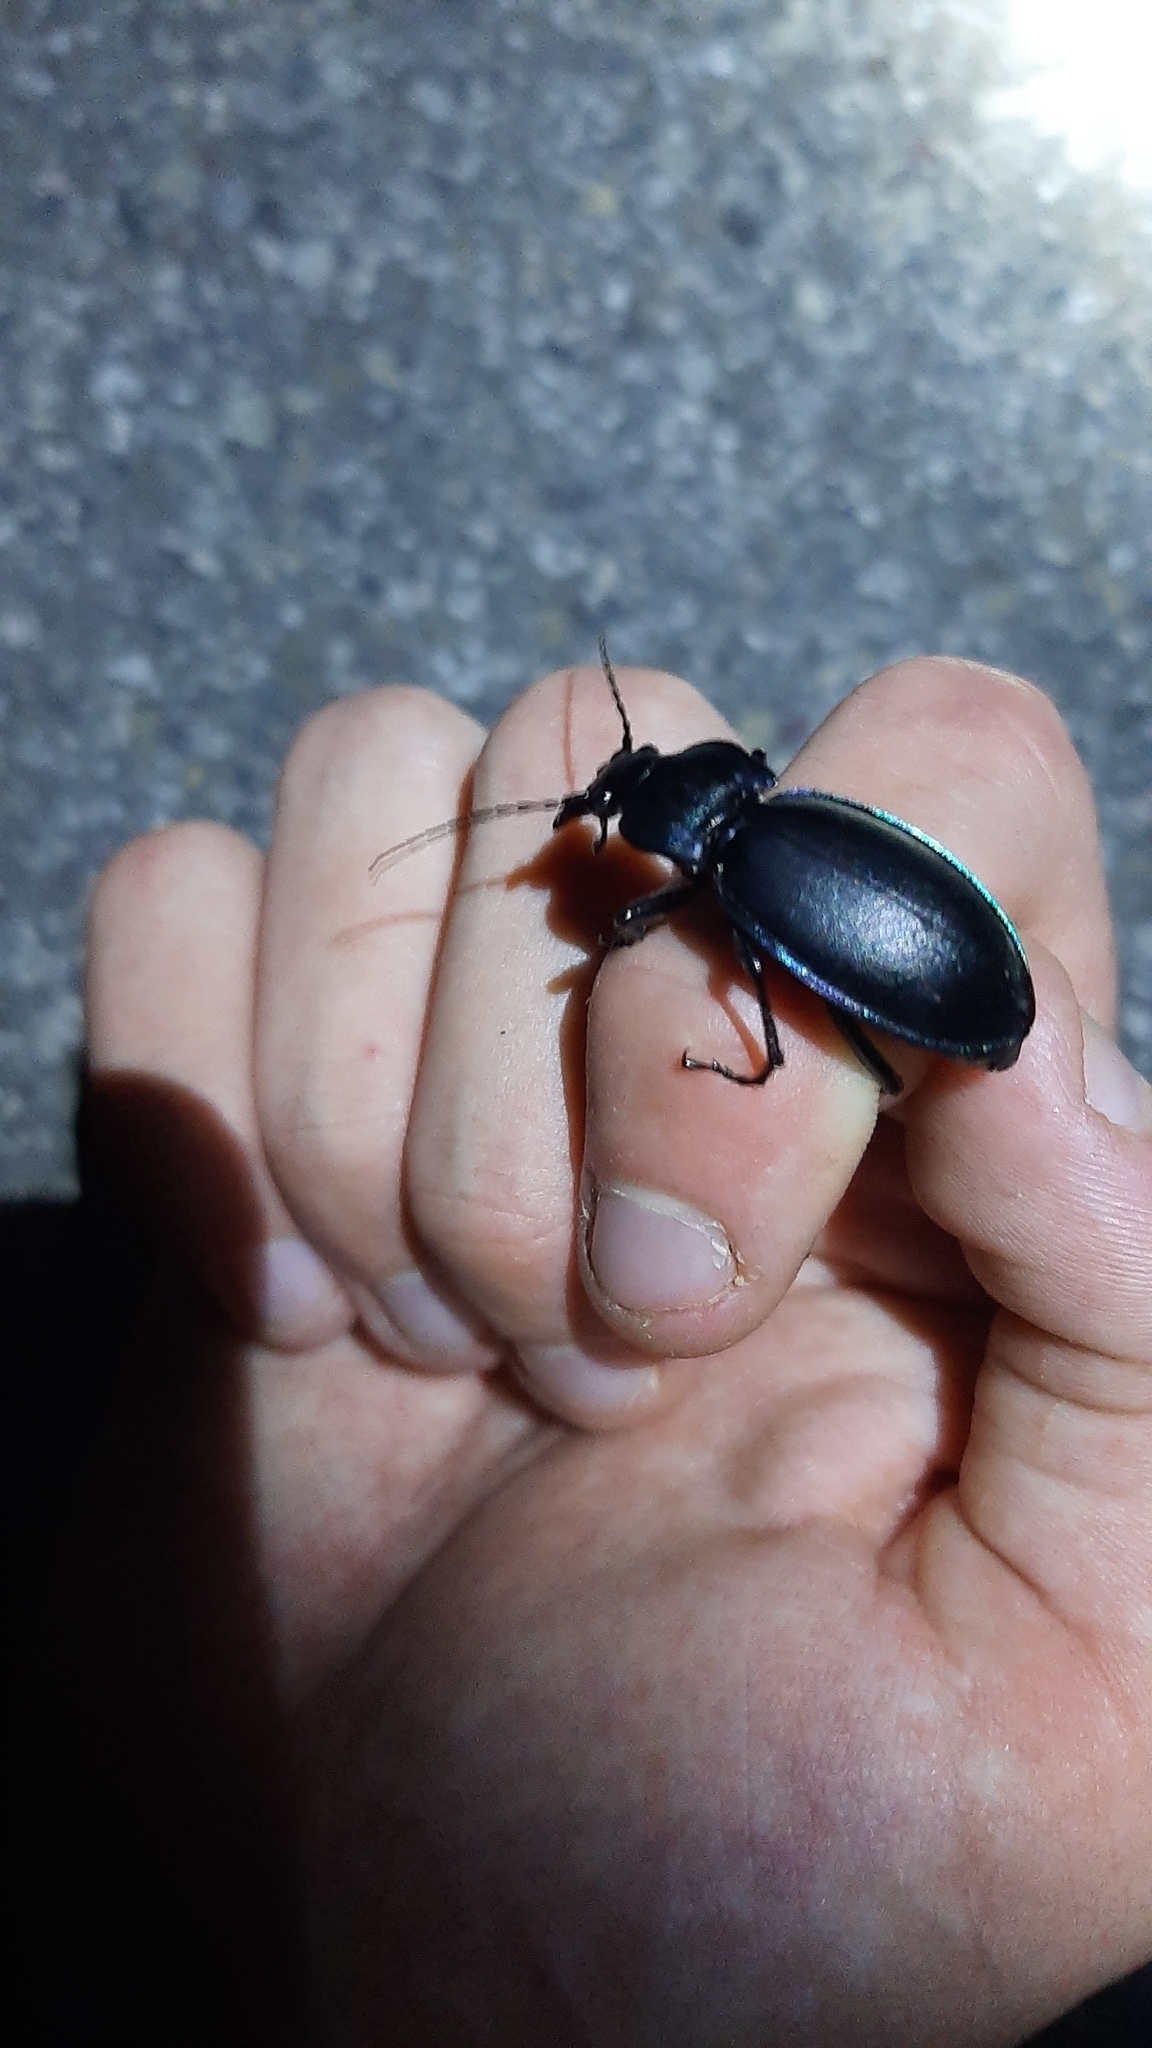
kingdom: Animalia
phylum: Arthropoda
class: Insecta
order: Coleoptera
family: Carabidae
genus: Carabus
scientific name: Carabus germarii
